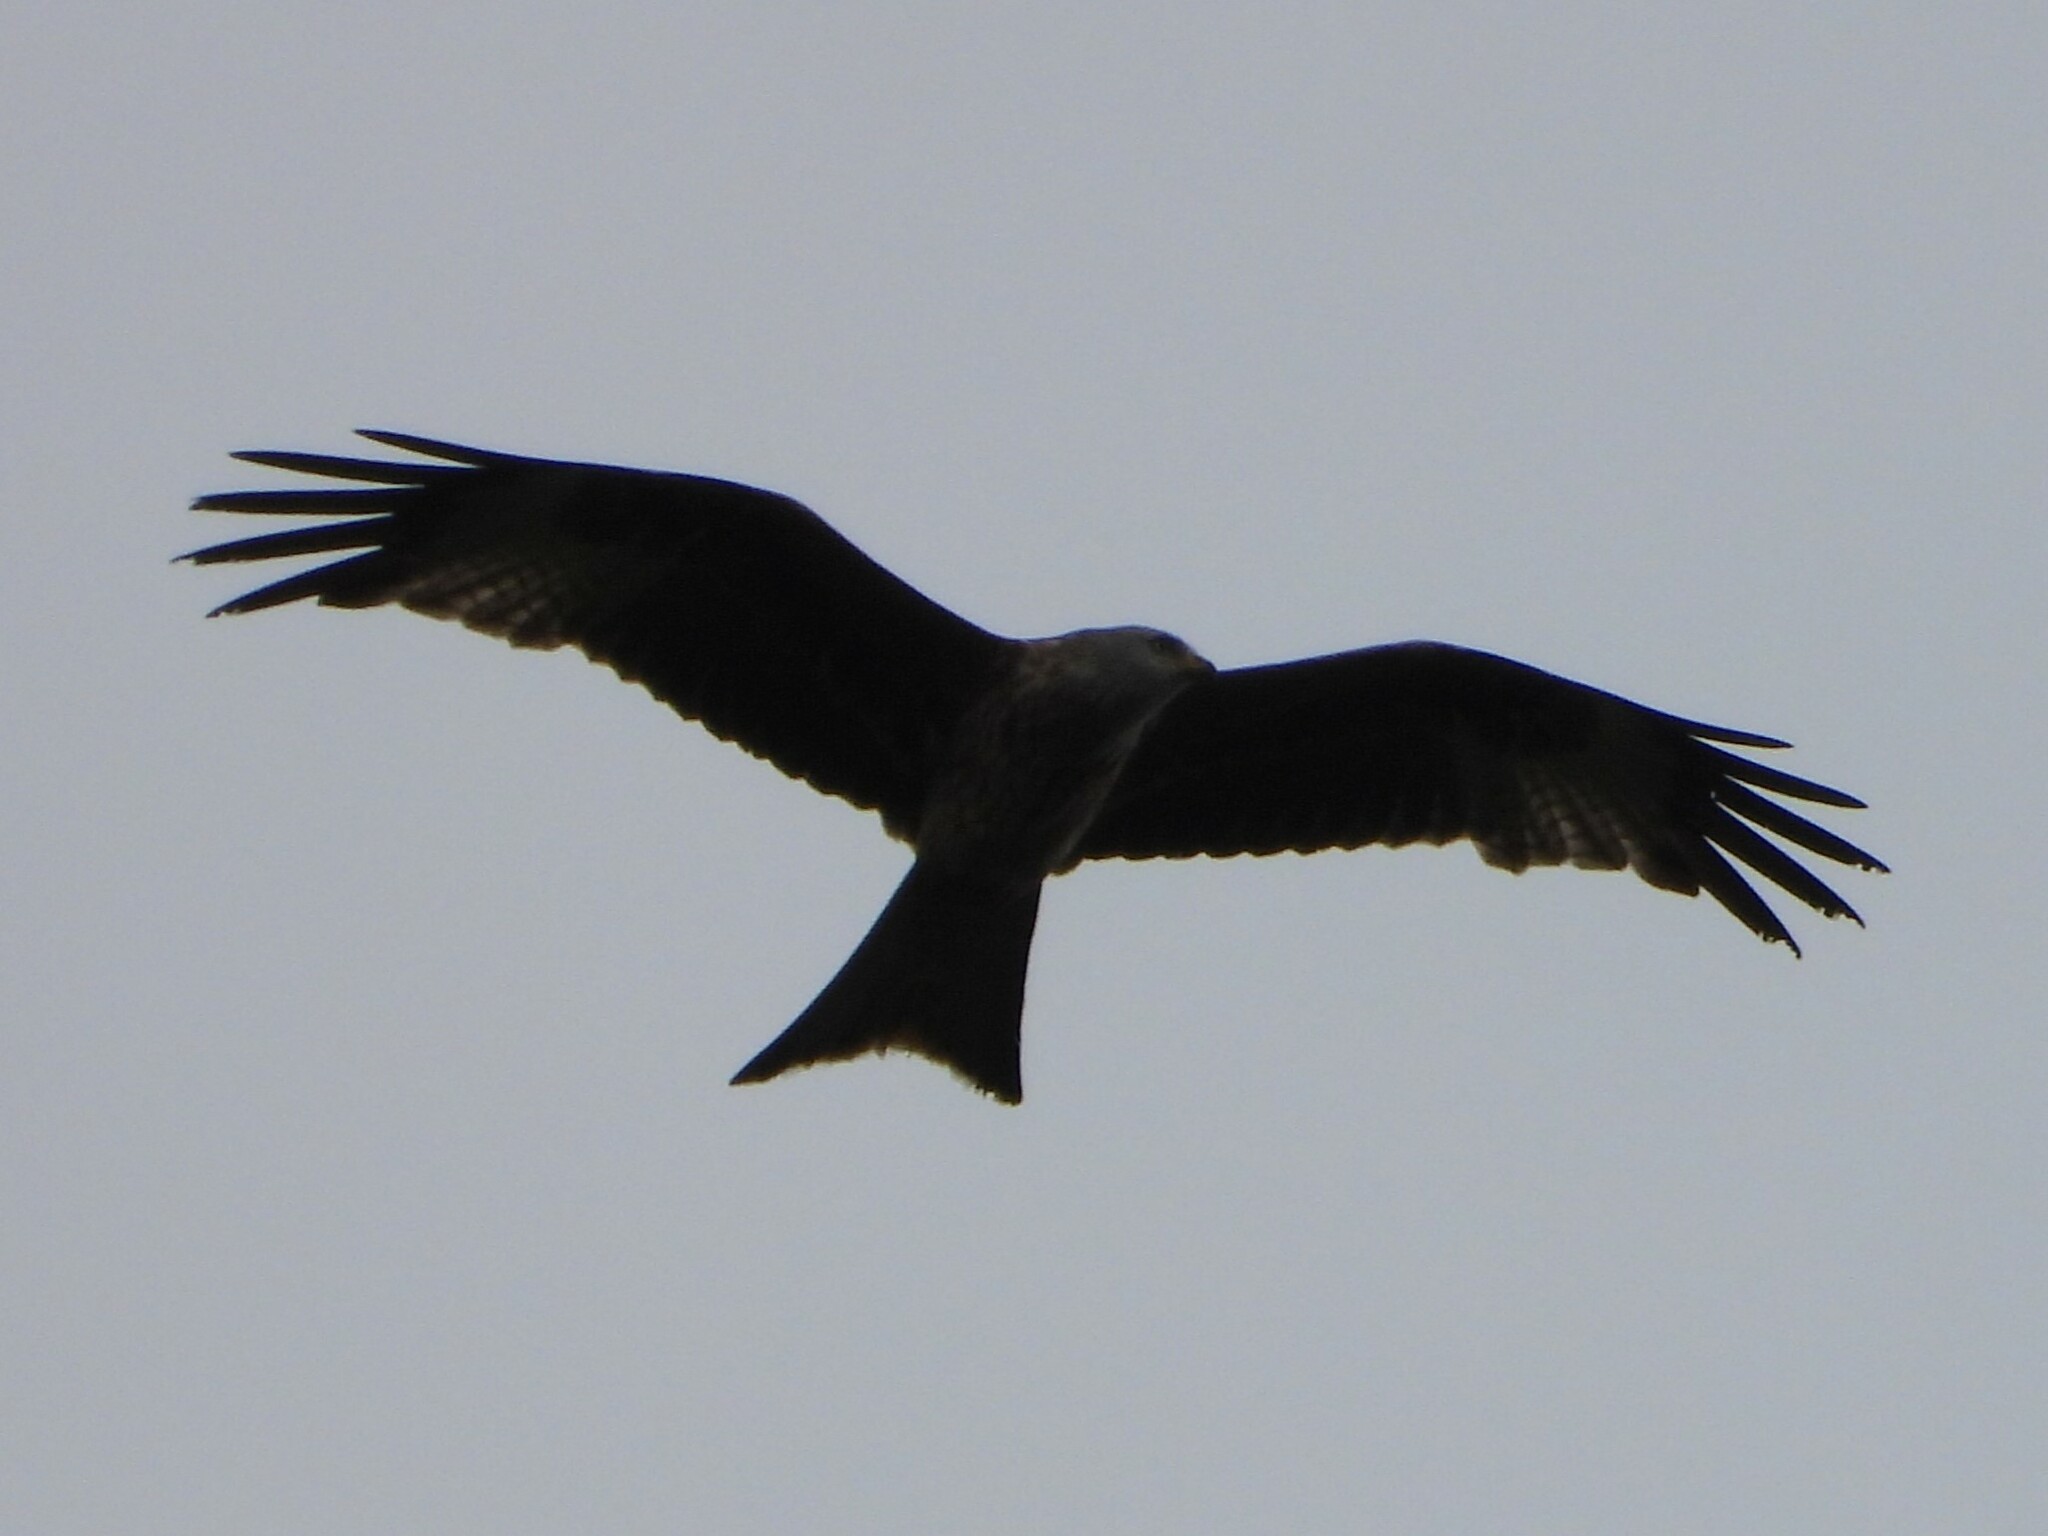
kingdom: Animalia
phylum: Chordata
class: Aves
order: Accipitriformes
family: Accipitridae
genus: Milvus
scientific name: Milvus milvus
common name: Red kite
